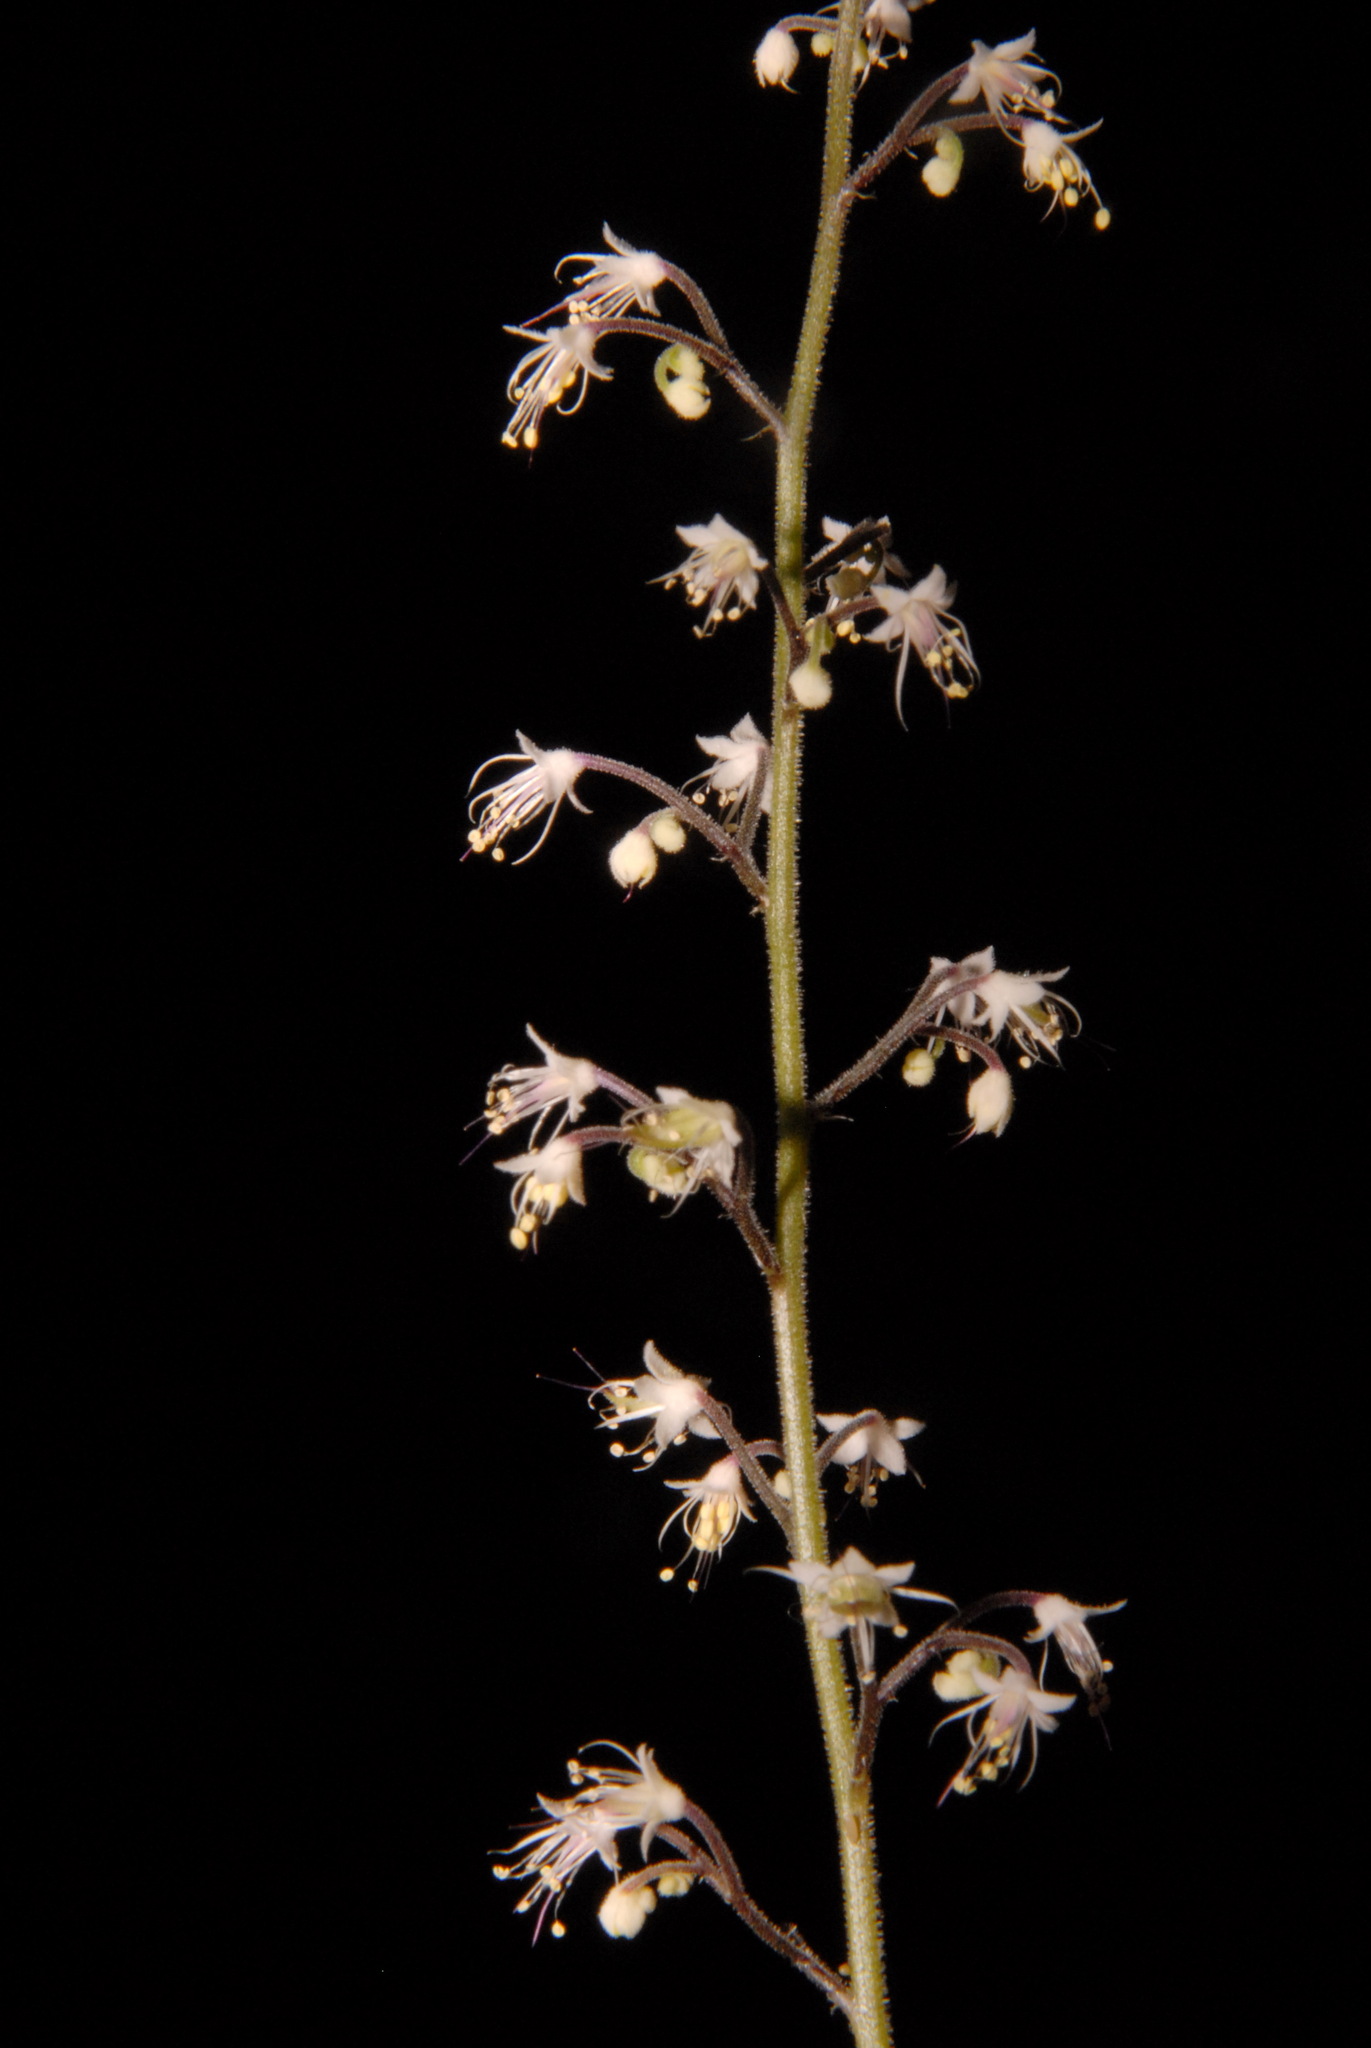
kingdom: Plantae
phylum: Tracheophyta
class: Magnoliopsida
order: Saxifragales
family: Saxifragaceae
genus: Tiarella
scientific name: Tiarella trifoliata
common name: Sugar-scoop
